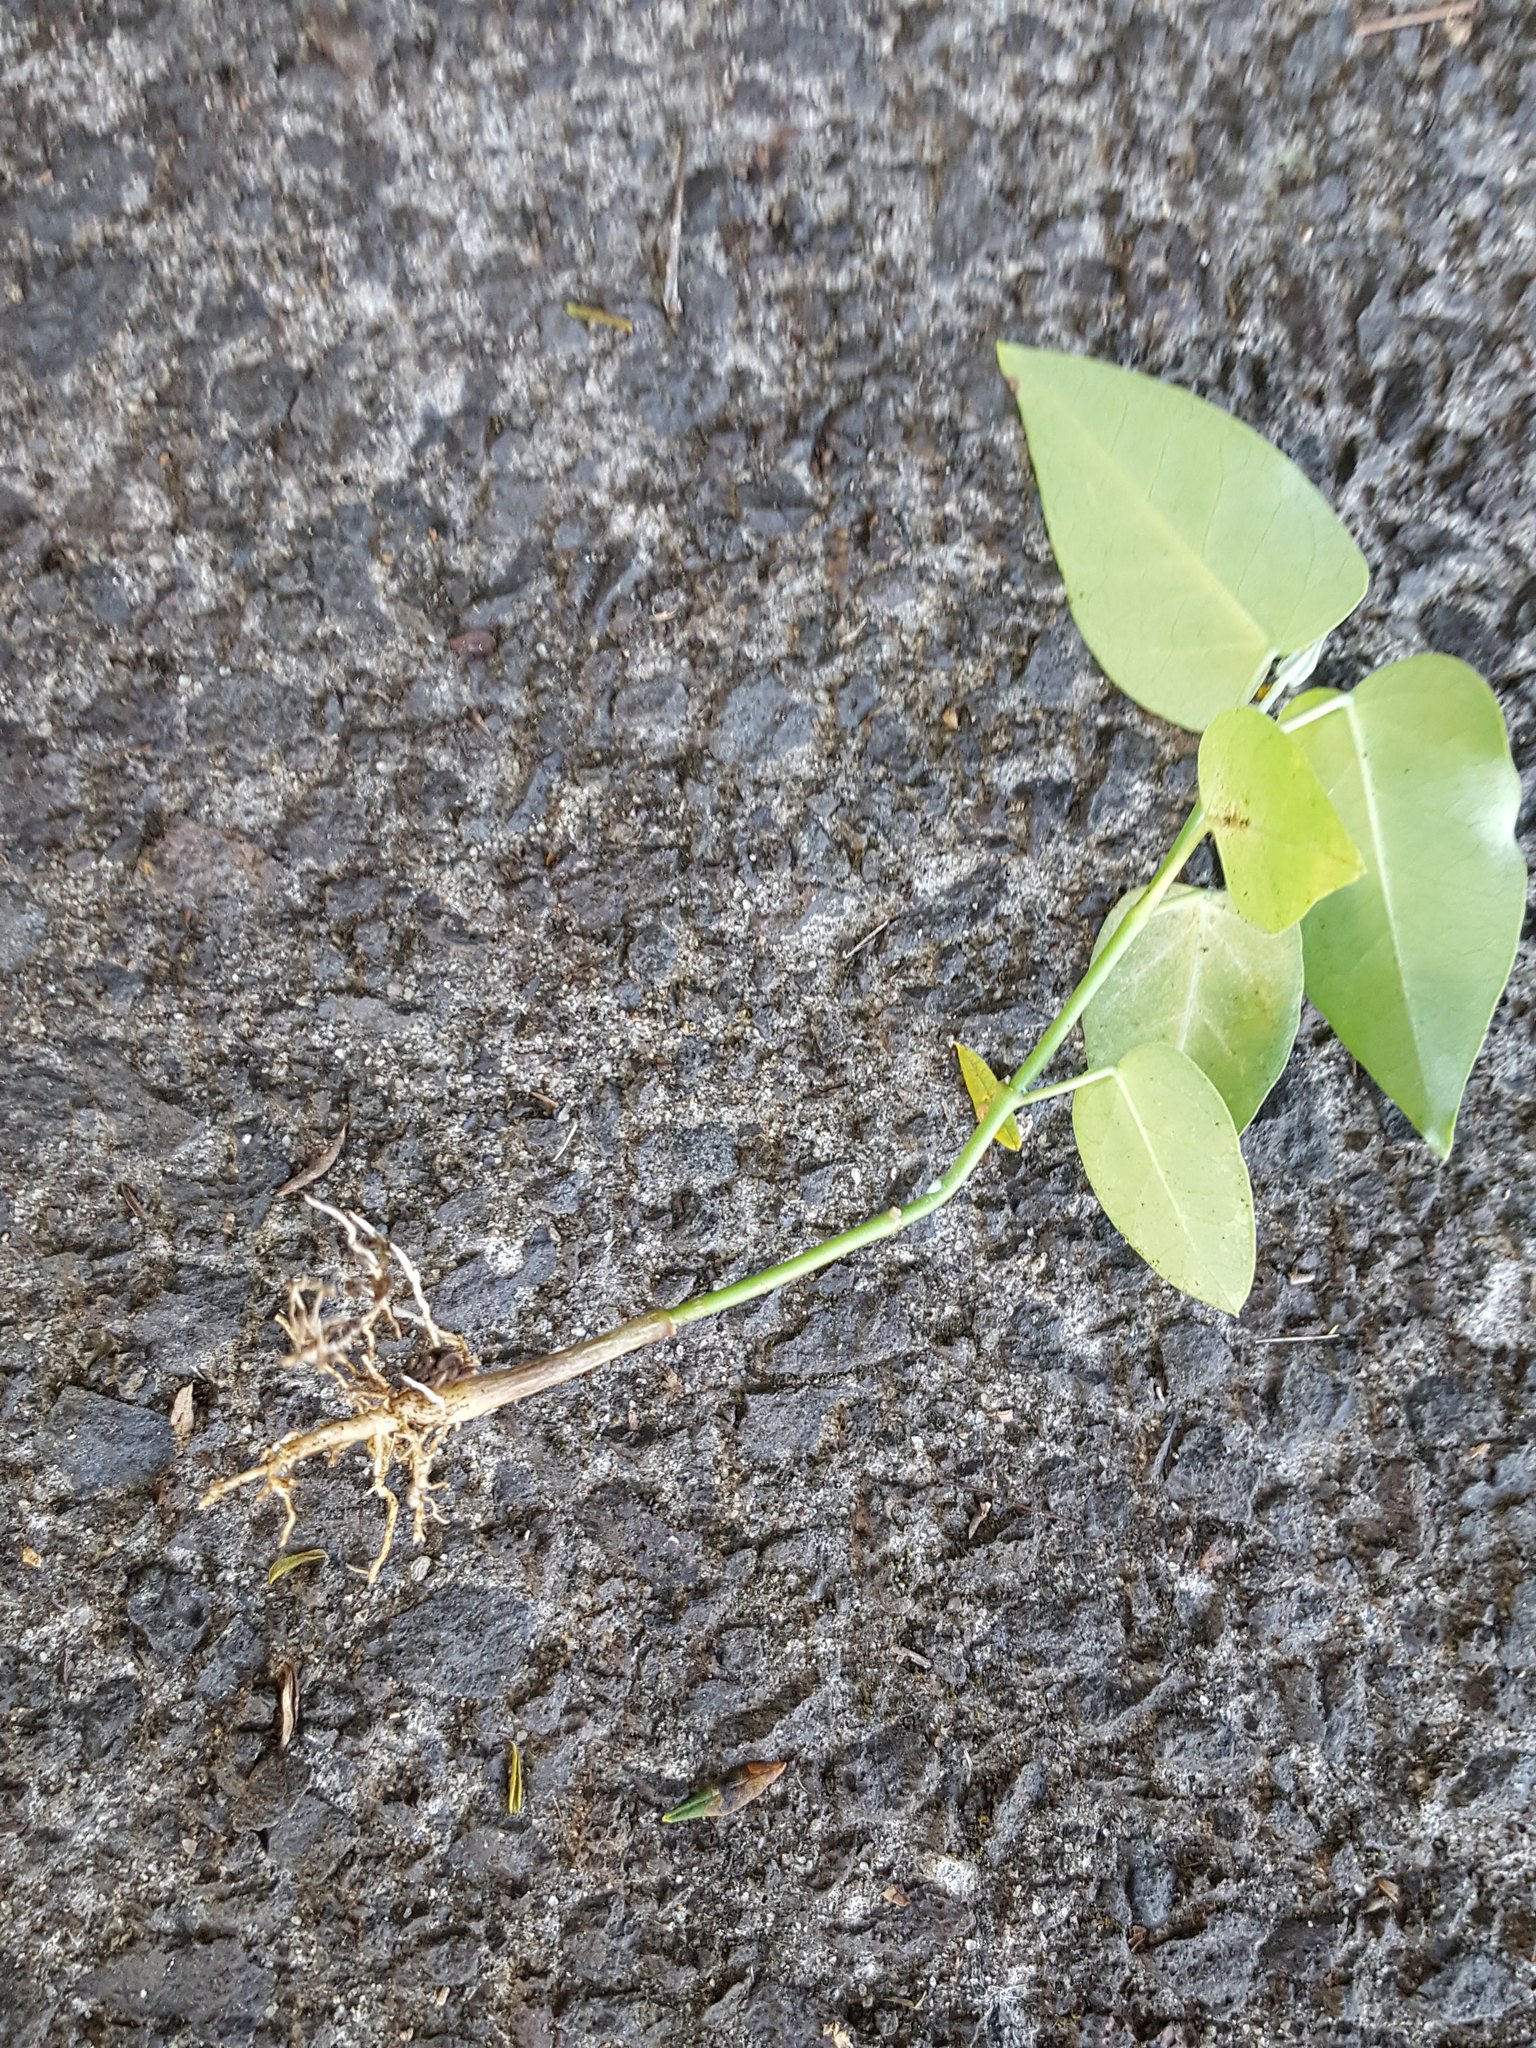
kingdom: Plantae
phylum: Tracheophyta
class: Magnoliopsida
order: Gentianales
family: Apocynaceae
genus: Araujia
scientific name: Araujia sericifera
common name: White bladderflower
